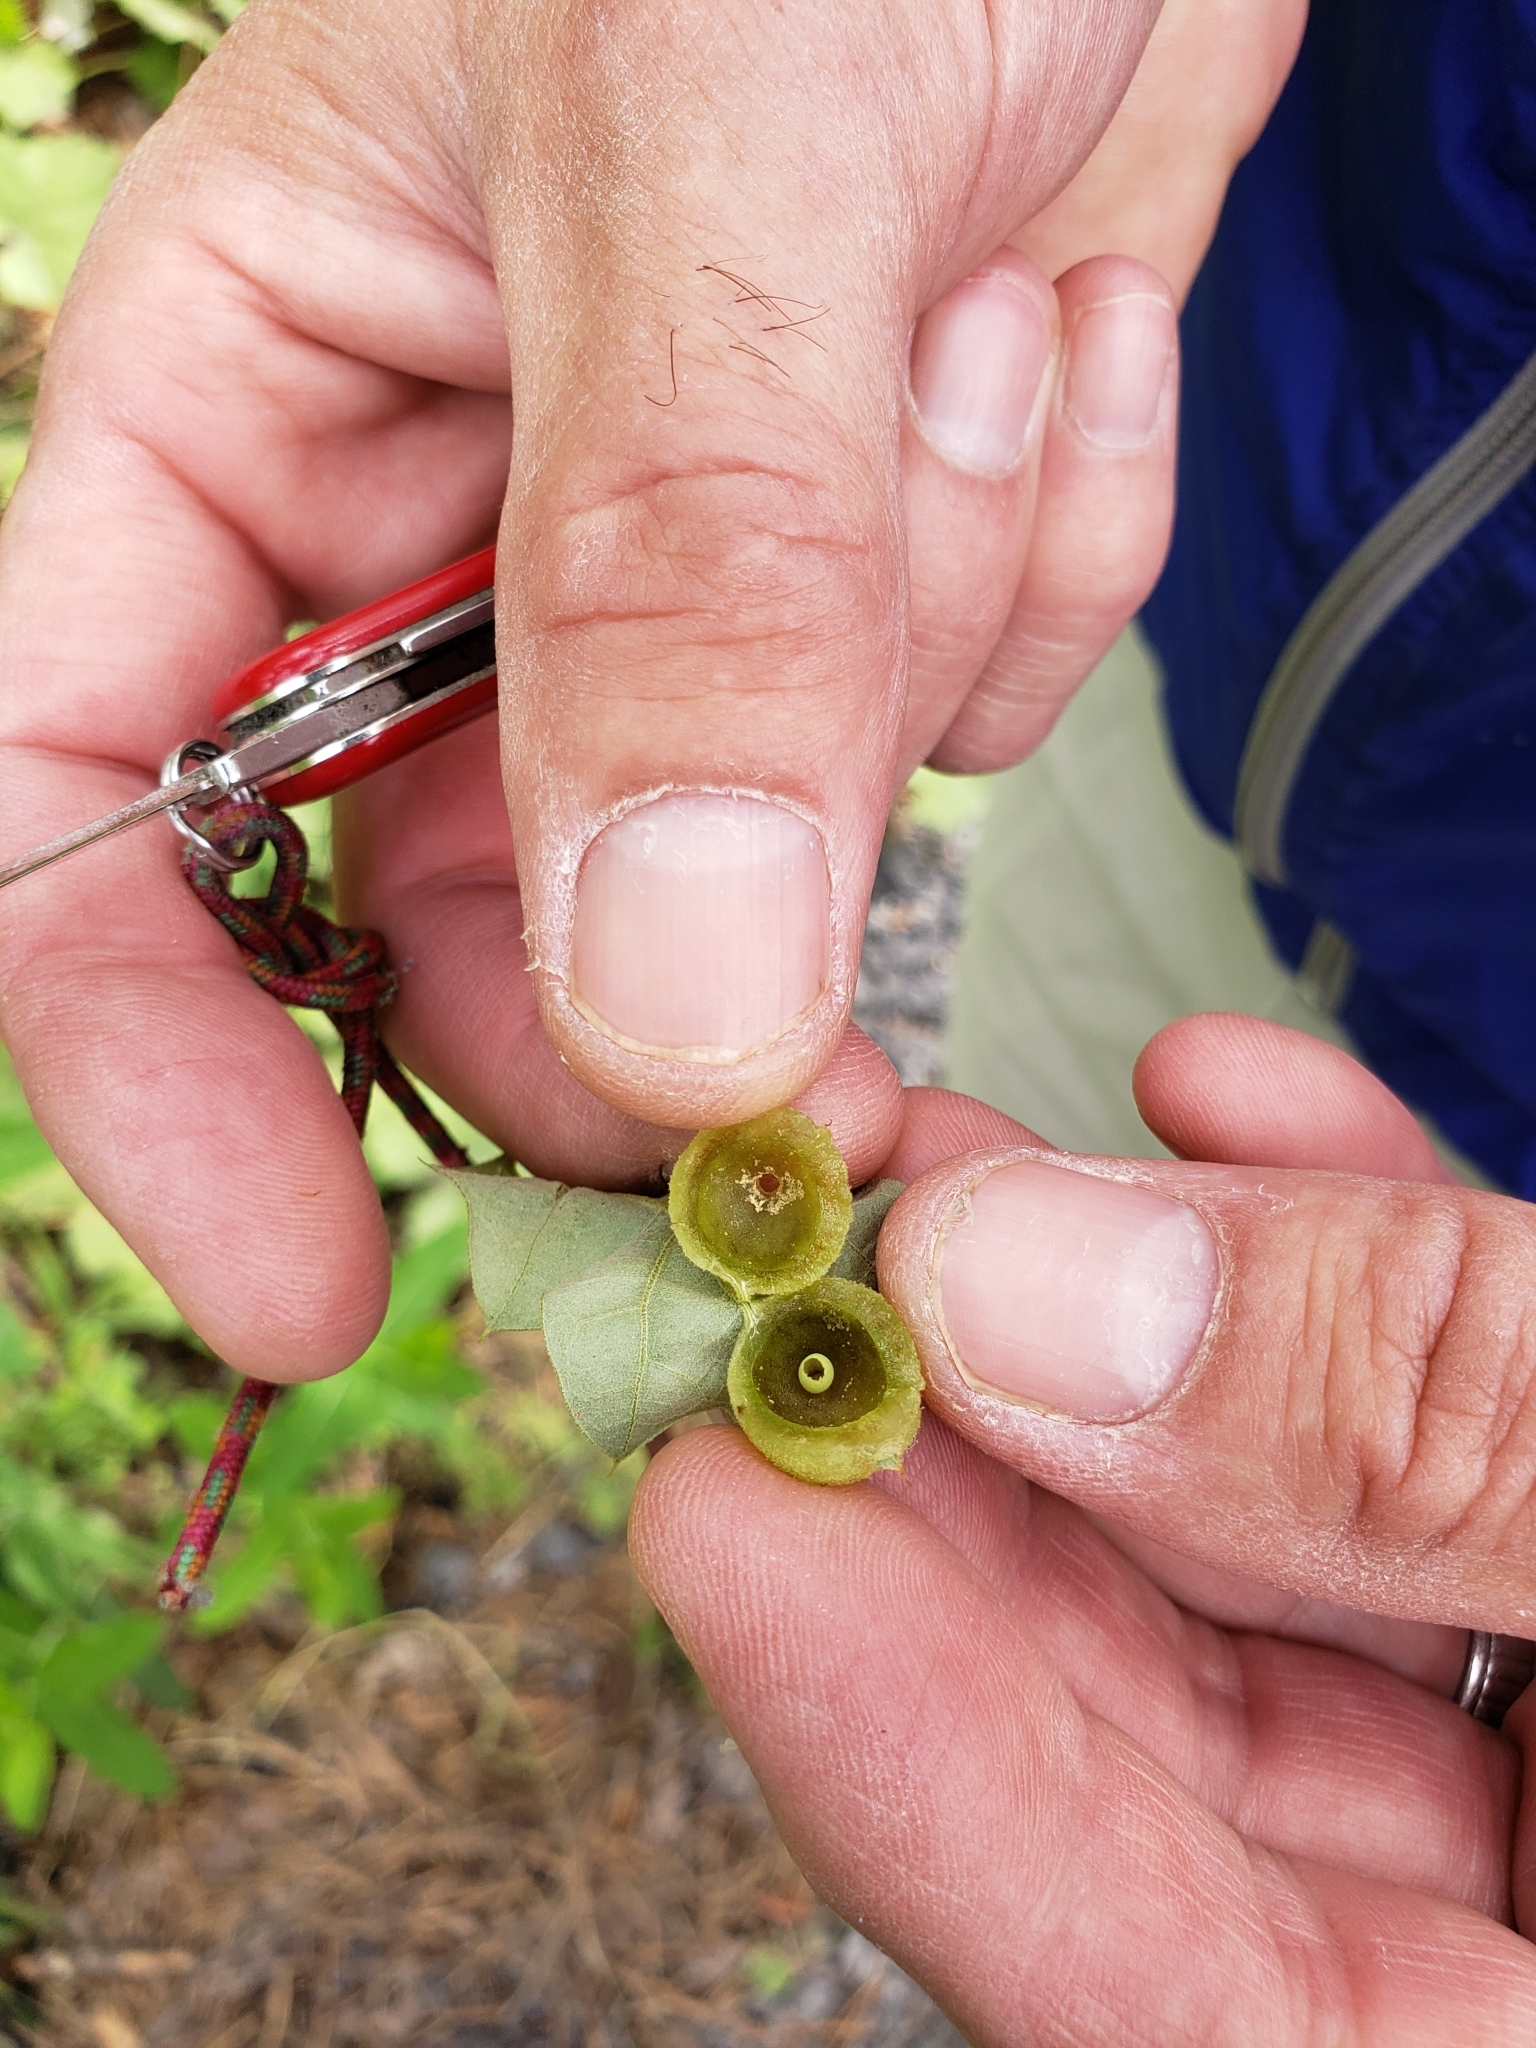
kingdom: Animalia
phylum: Arthropoda
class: Insecta
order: Hymenoptera
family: Cynipidae
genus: Dryocosmus
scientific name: Dryocosmus quercuspalustris
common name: Succulent oak gall wasp
